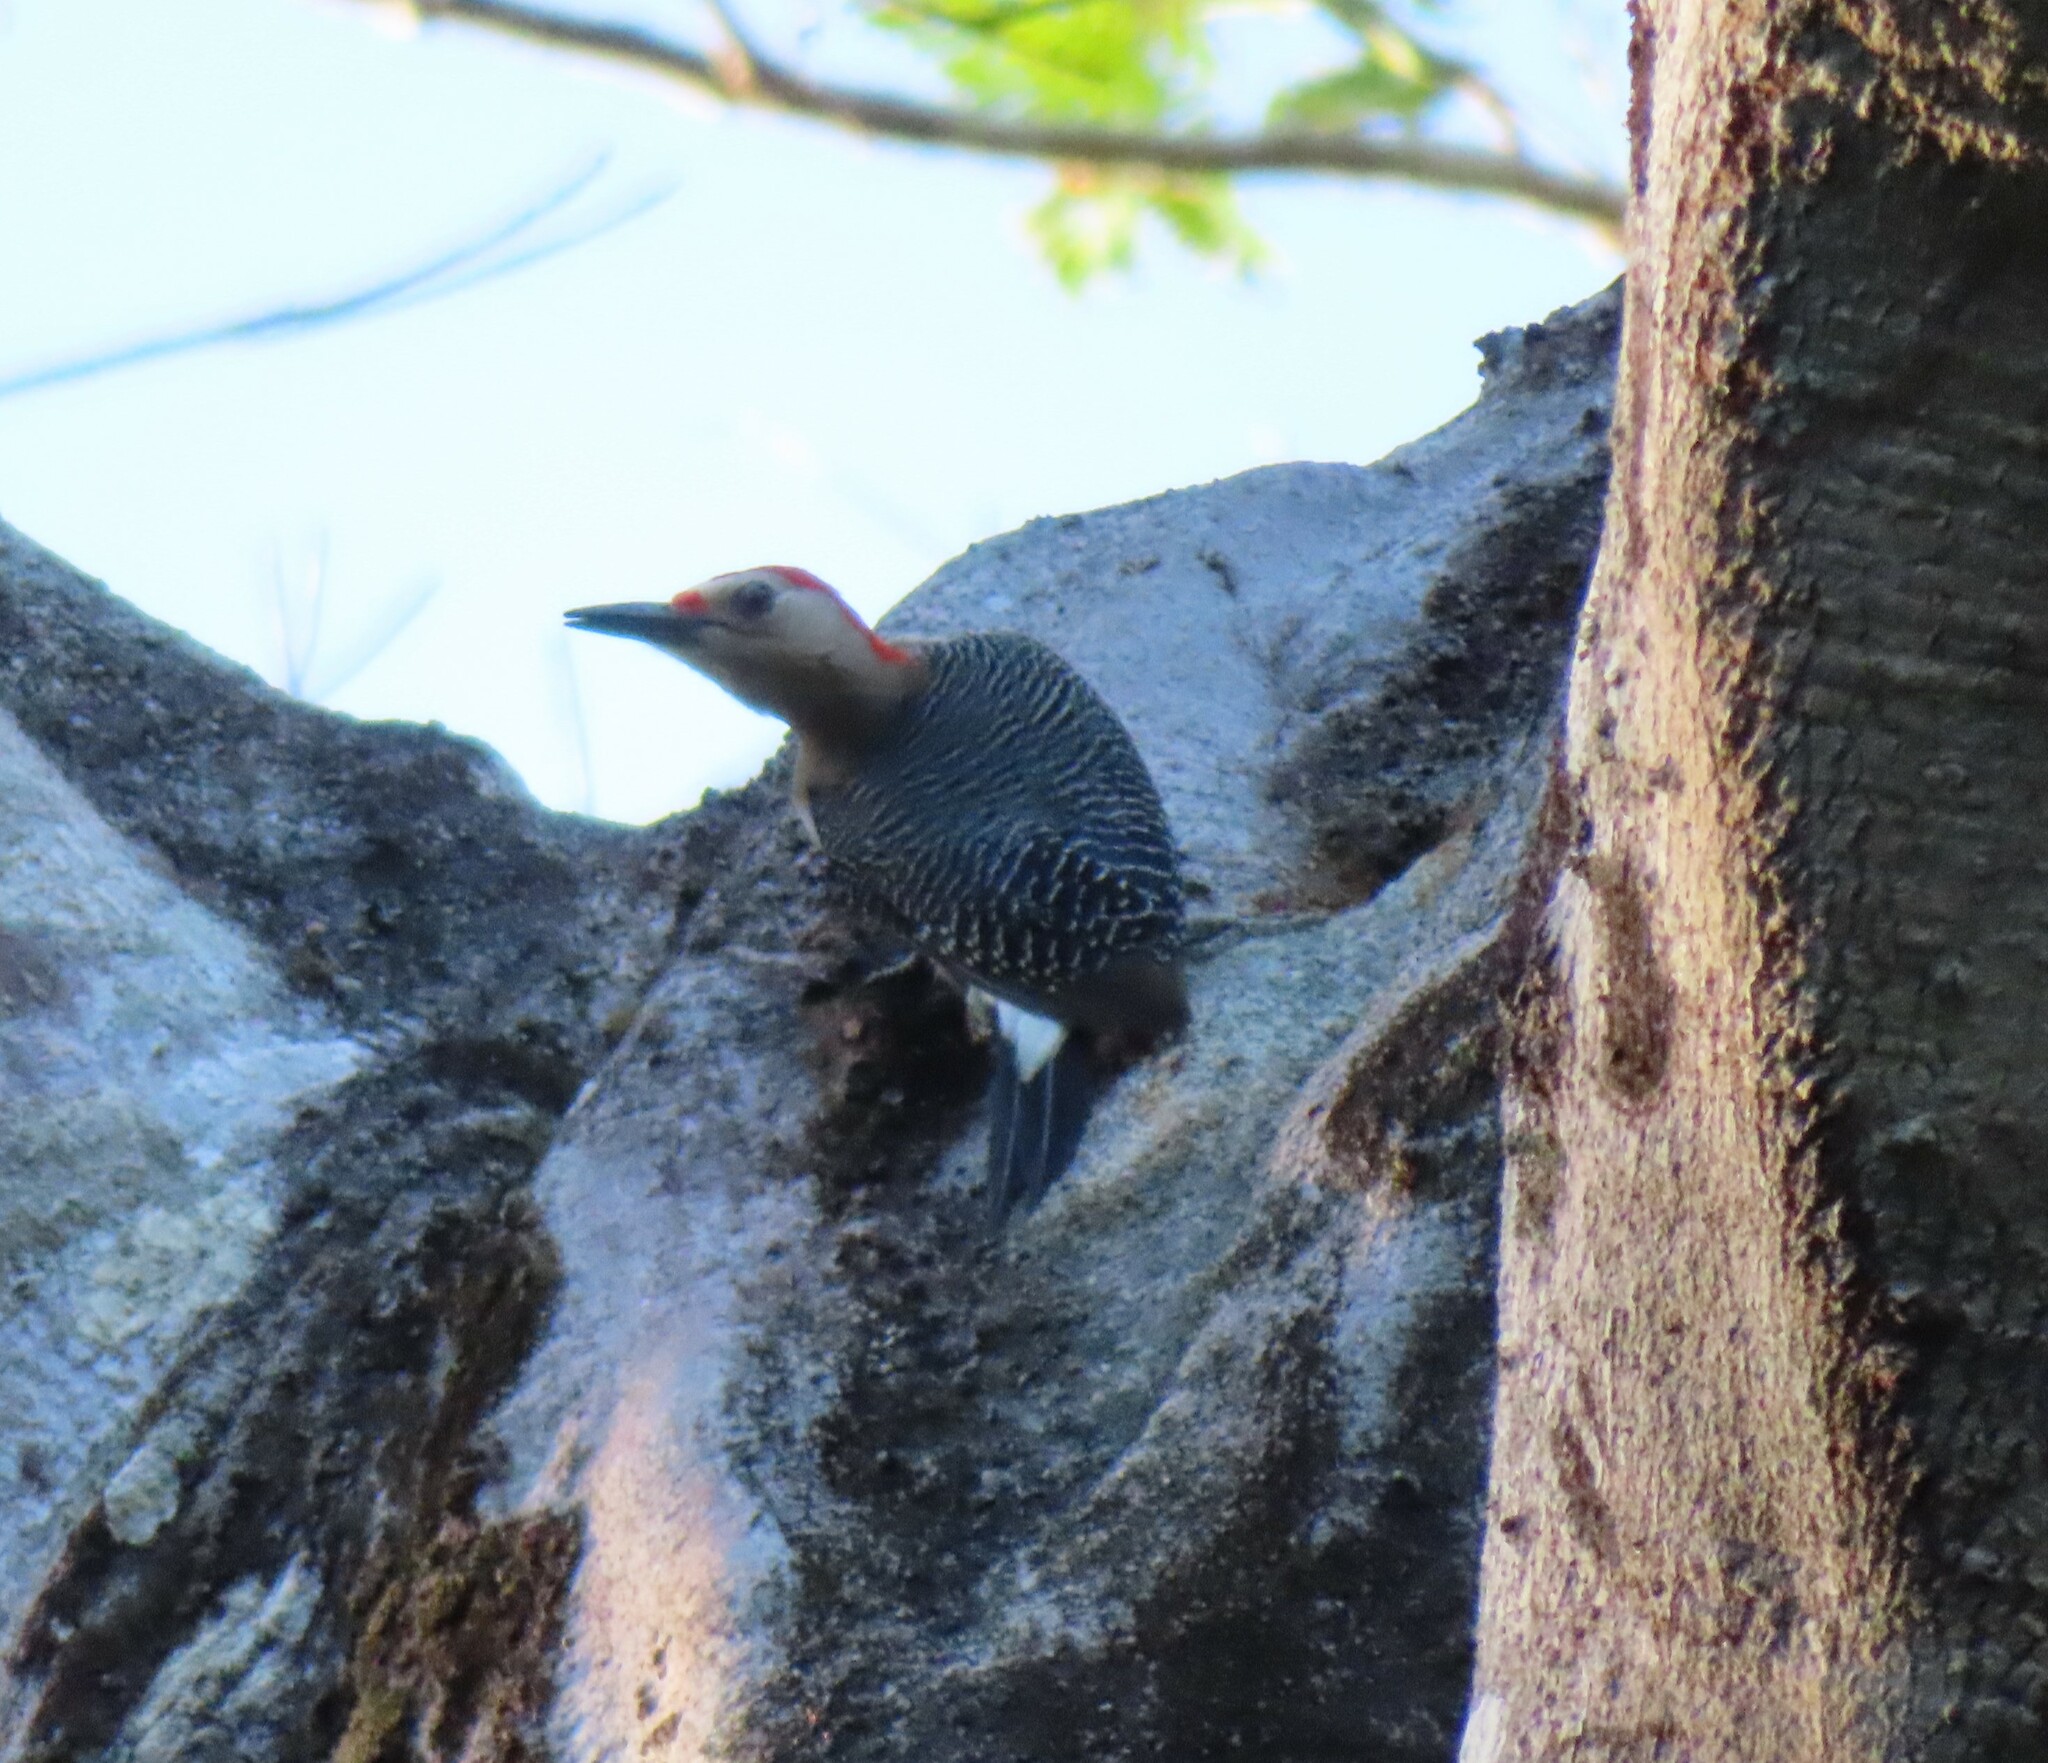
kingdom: Animalia
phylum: Chordata
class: Aves
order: Piciformes
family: Picidae
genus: Melanerpes
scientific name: Melanerpes aurifrons
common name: Golden-fronted woodpecker
